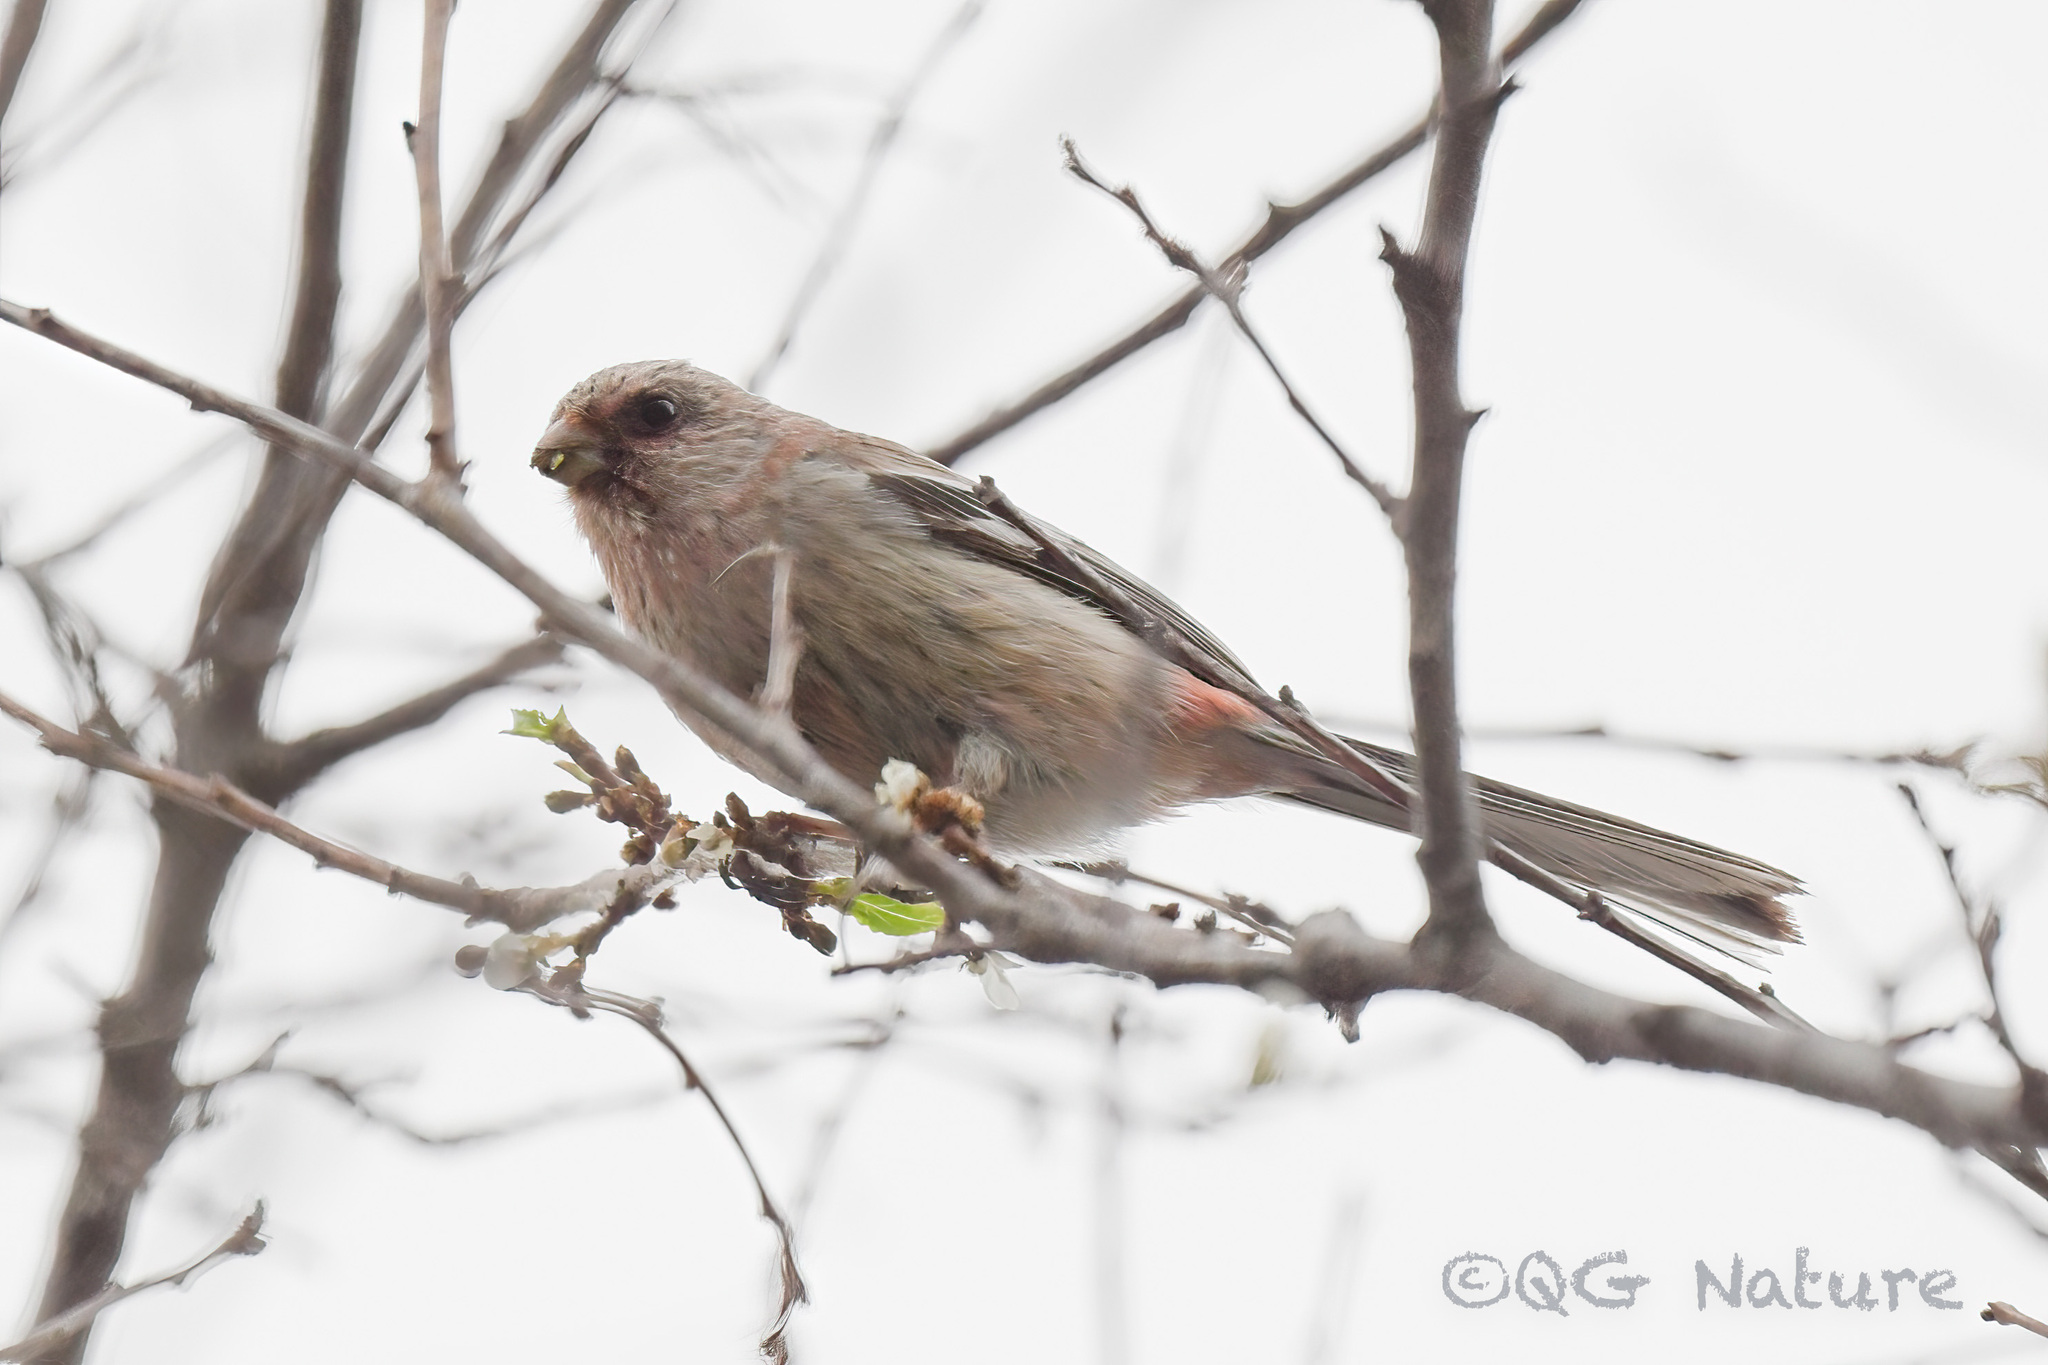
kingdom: Animalia
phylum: Chordata
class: Aves
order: Passeriformes
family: Fringillidae
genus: Carpodacus
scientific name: Carpodacus sibiricus
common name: Long-tailed rosefinch
